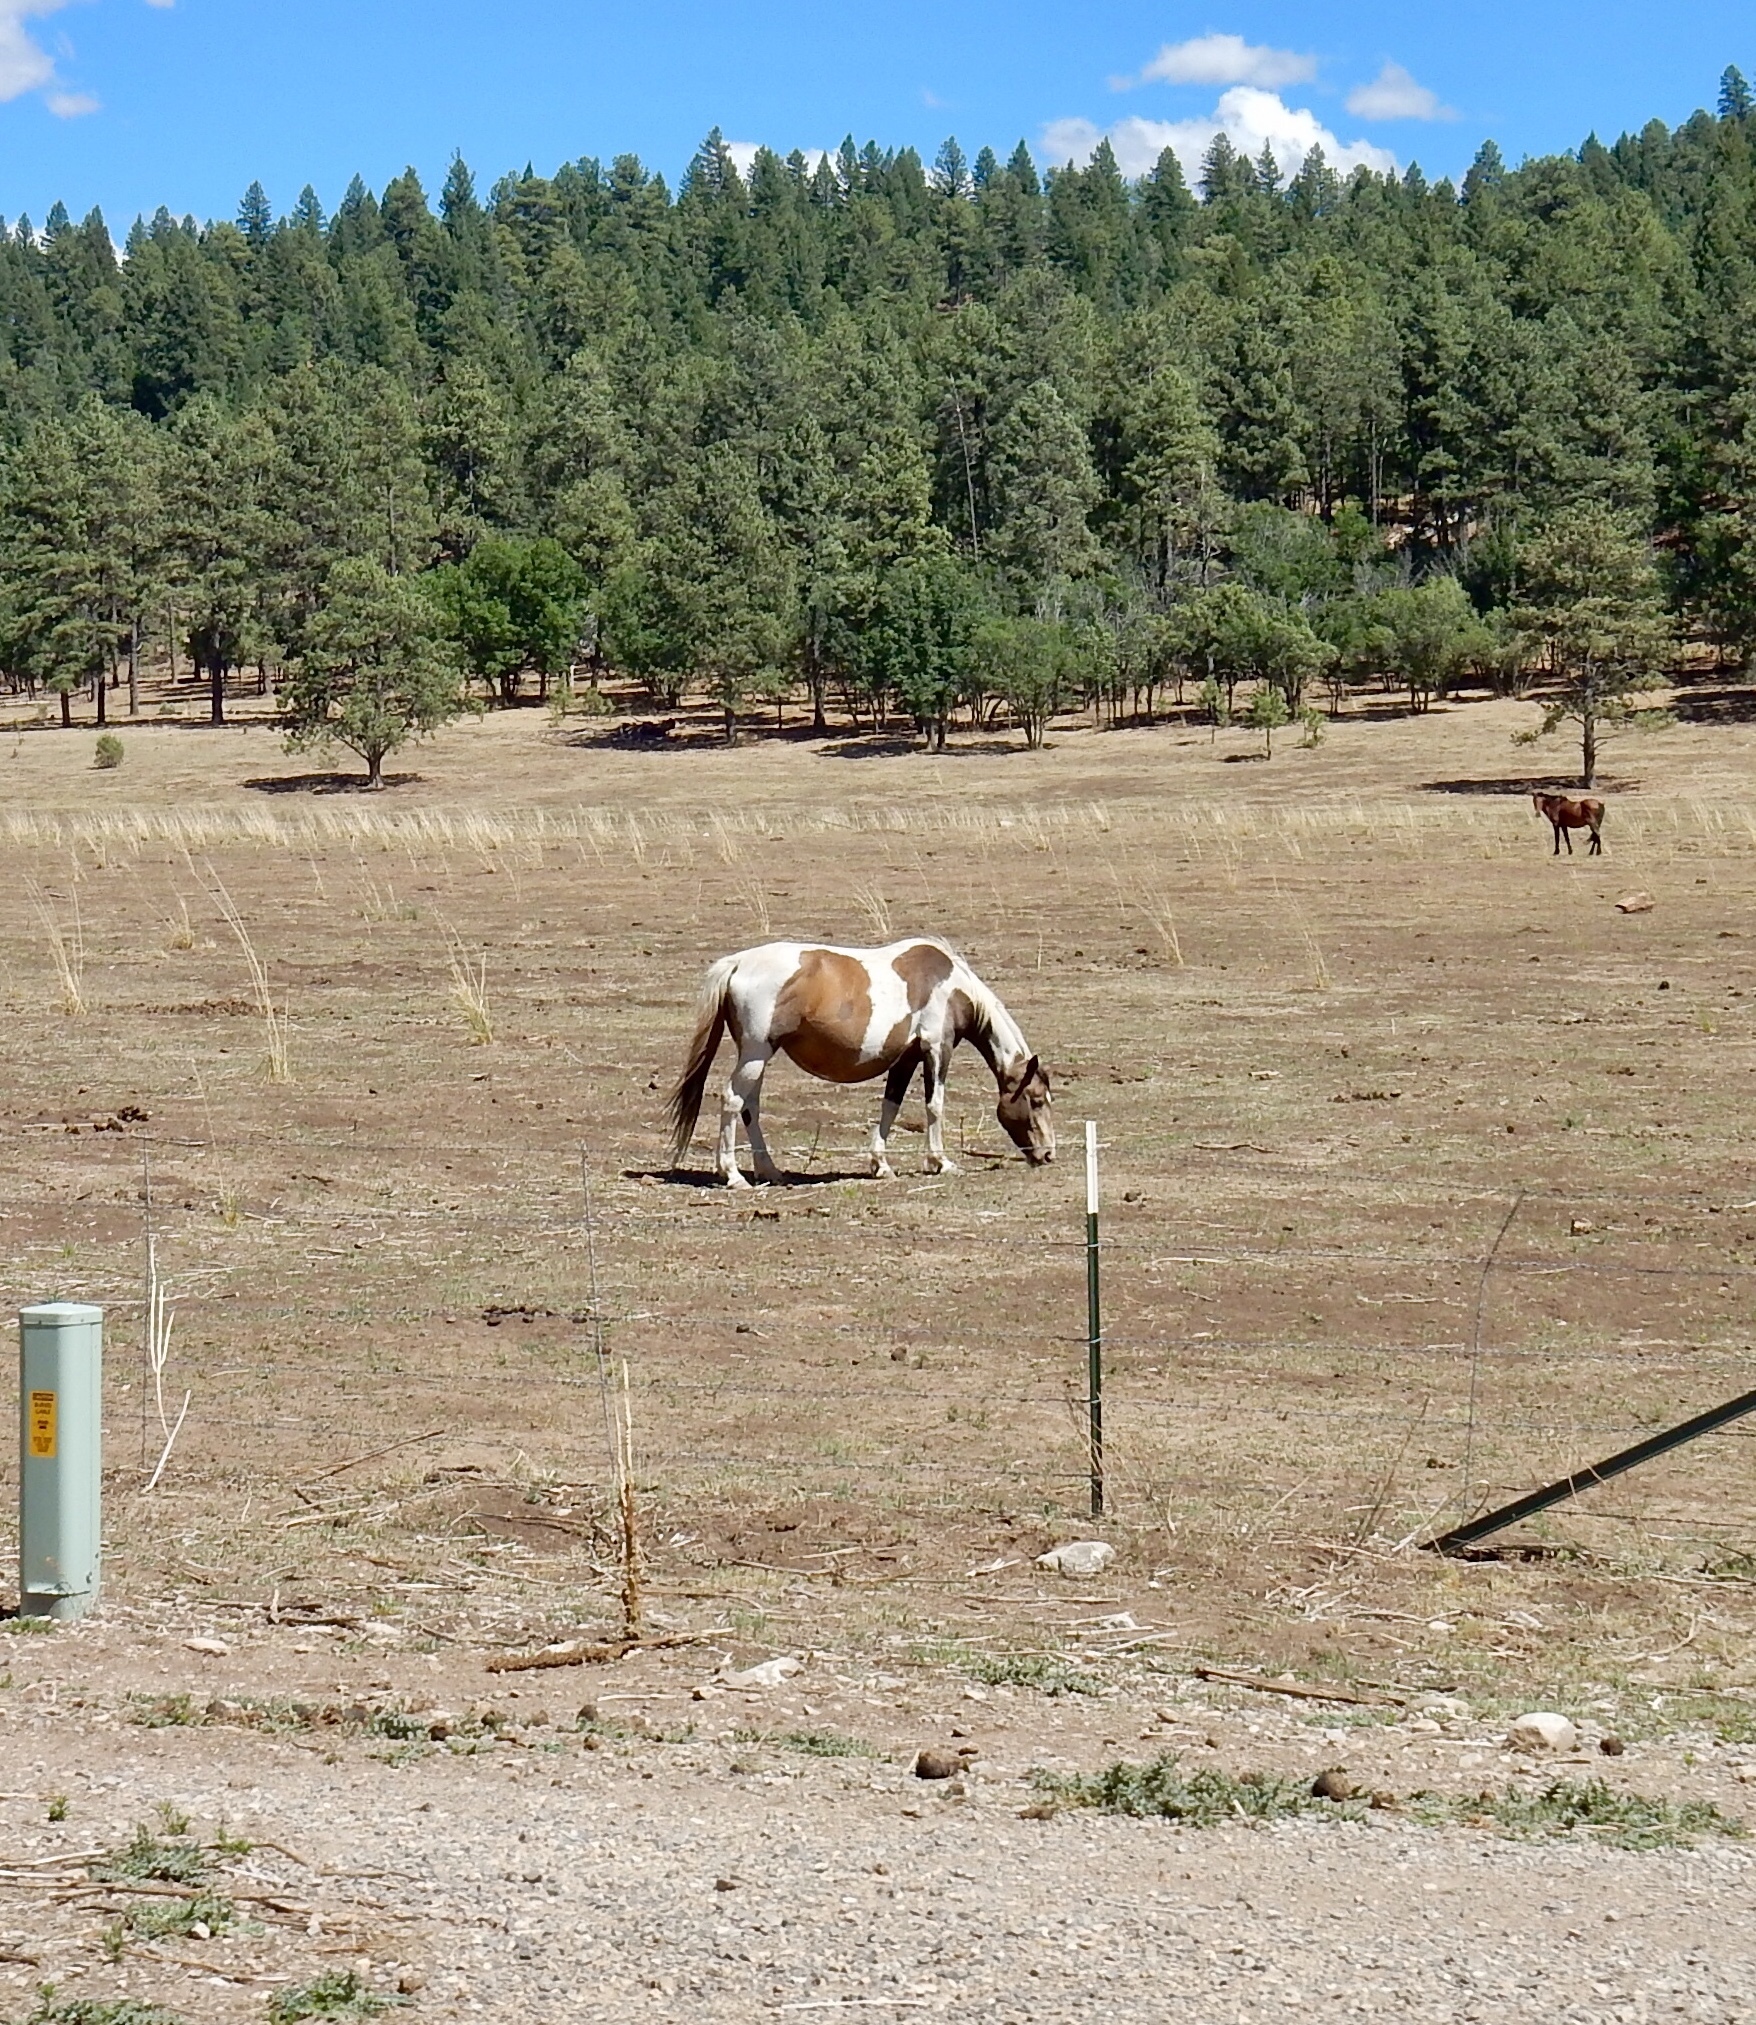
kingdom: Animalia
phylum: Chordata
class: Mammalia
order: Perissodactyla
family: Equidae
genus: Equus
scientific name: Equus caballus
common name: Horse
